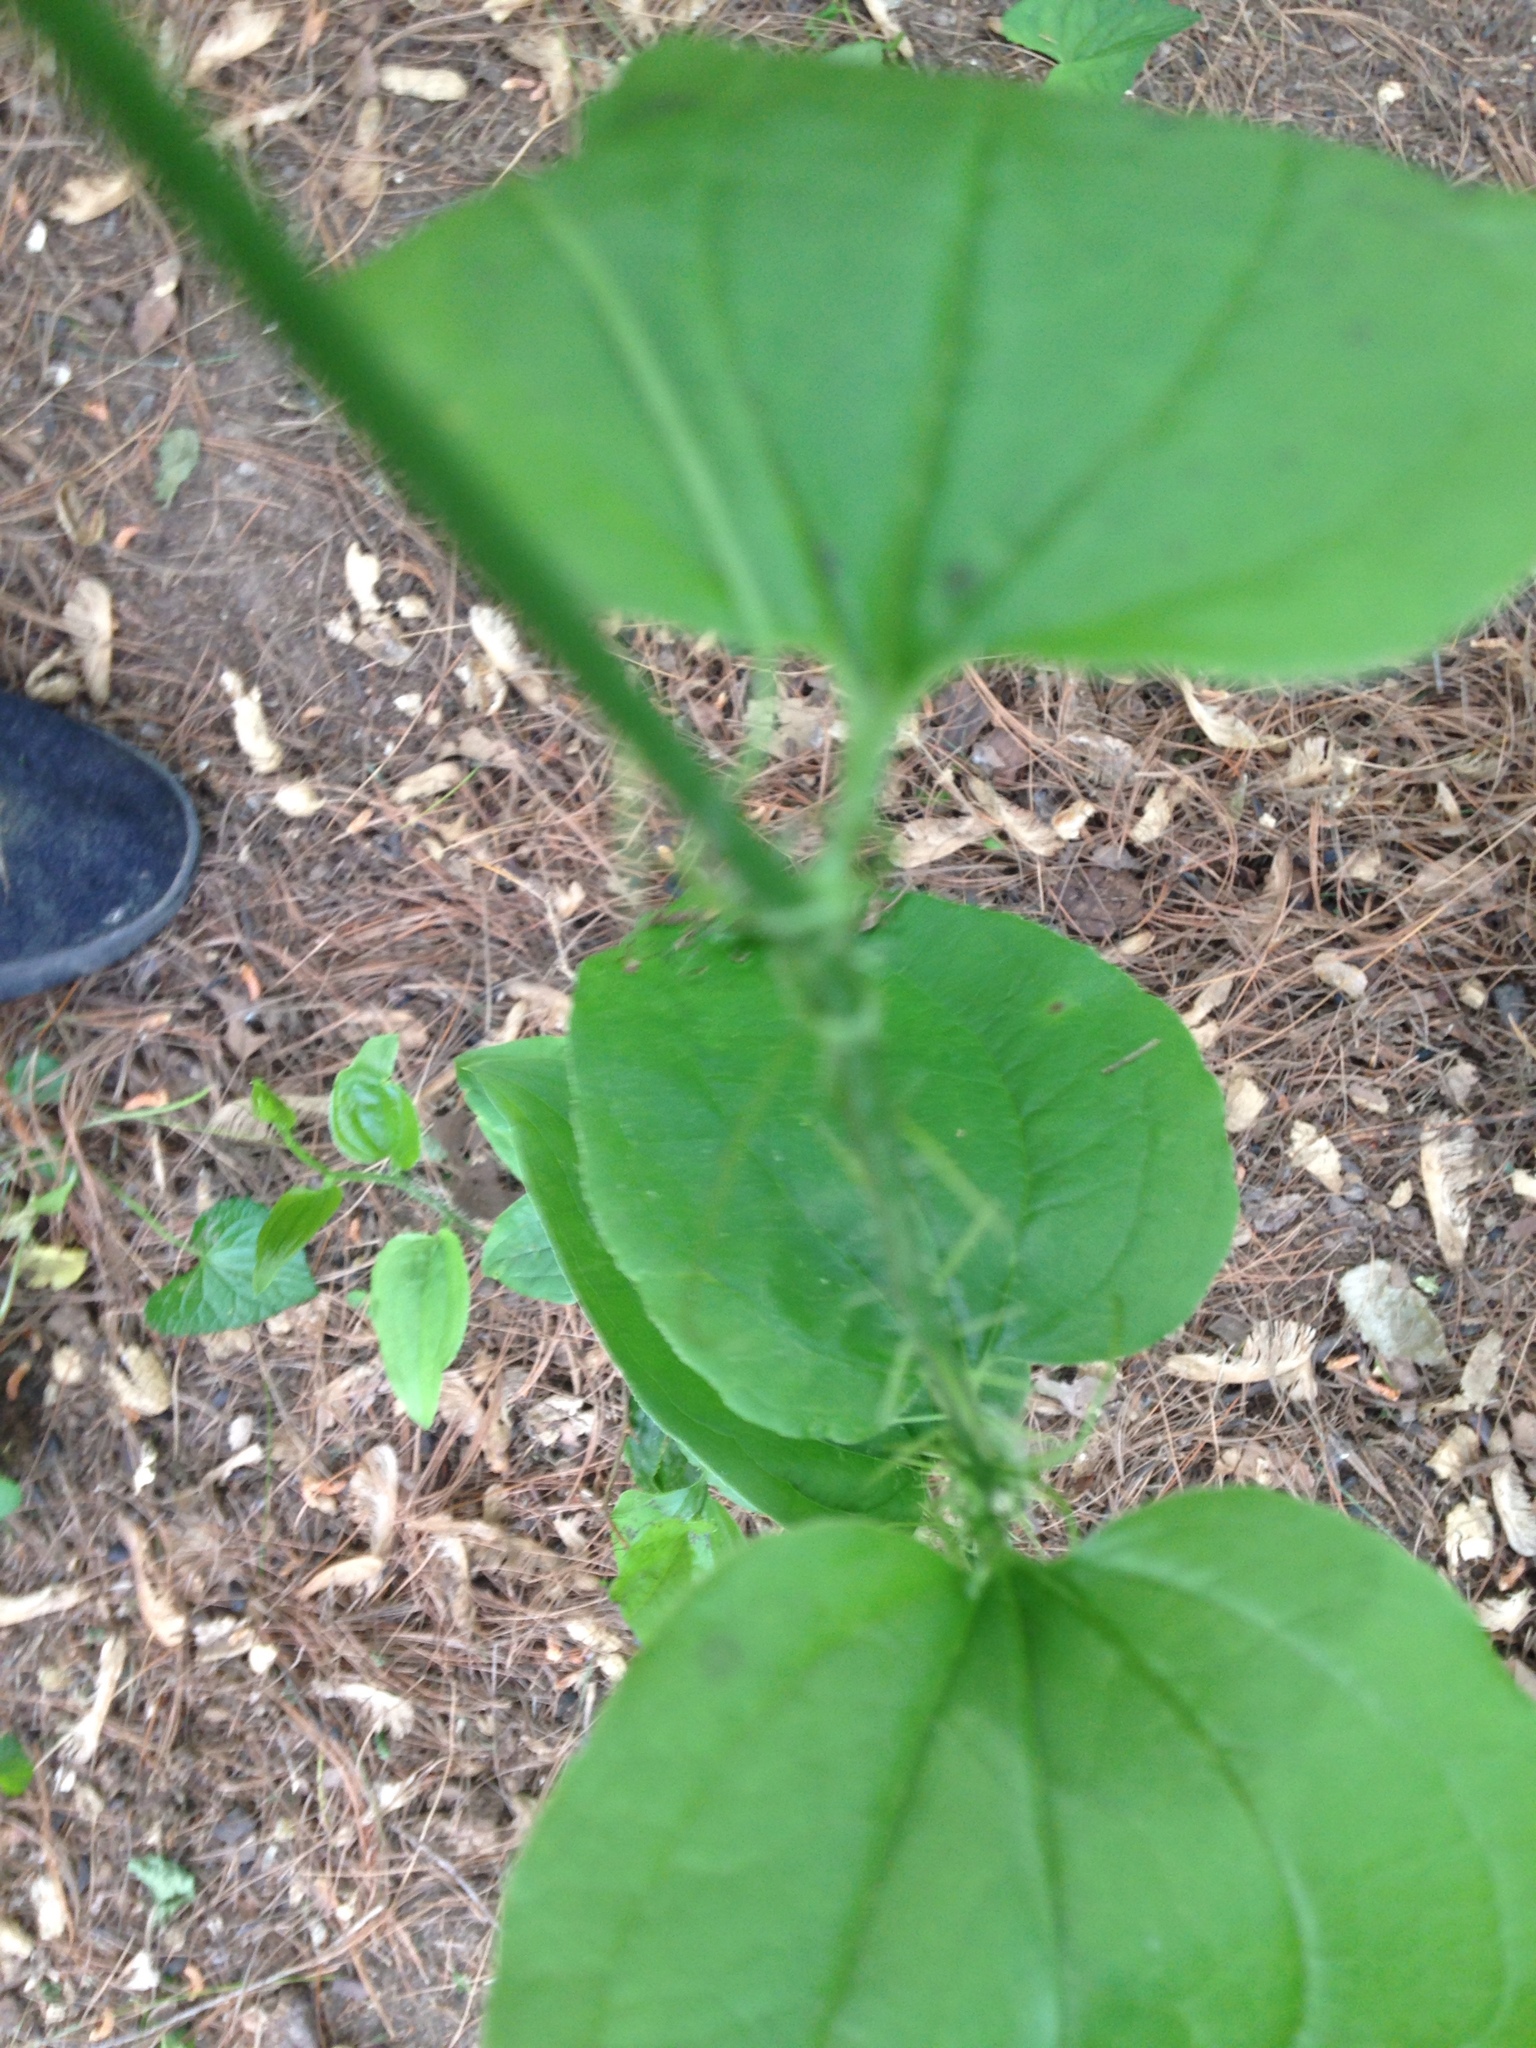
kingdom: Plantae
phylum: Tracheophyta
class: Liliopsida
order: Liliales
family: Smilacaceae
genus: Smilax
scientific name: Smilax tamnoides
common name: Hellfetter
